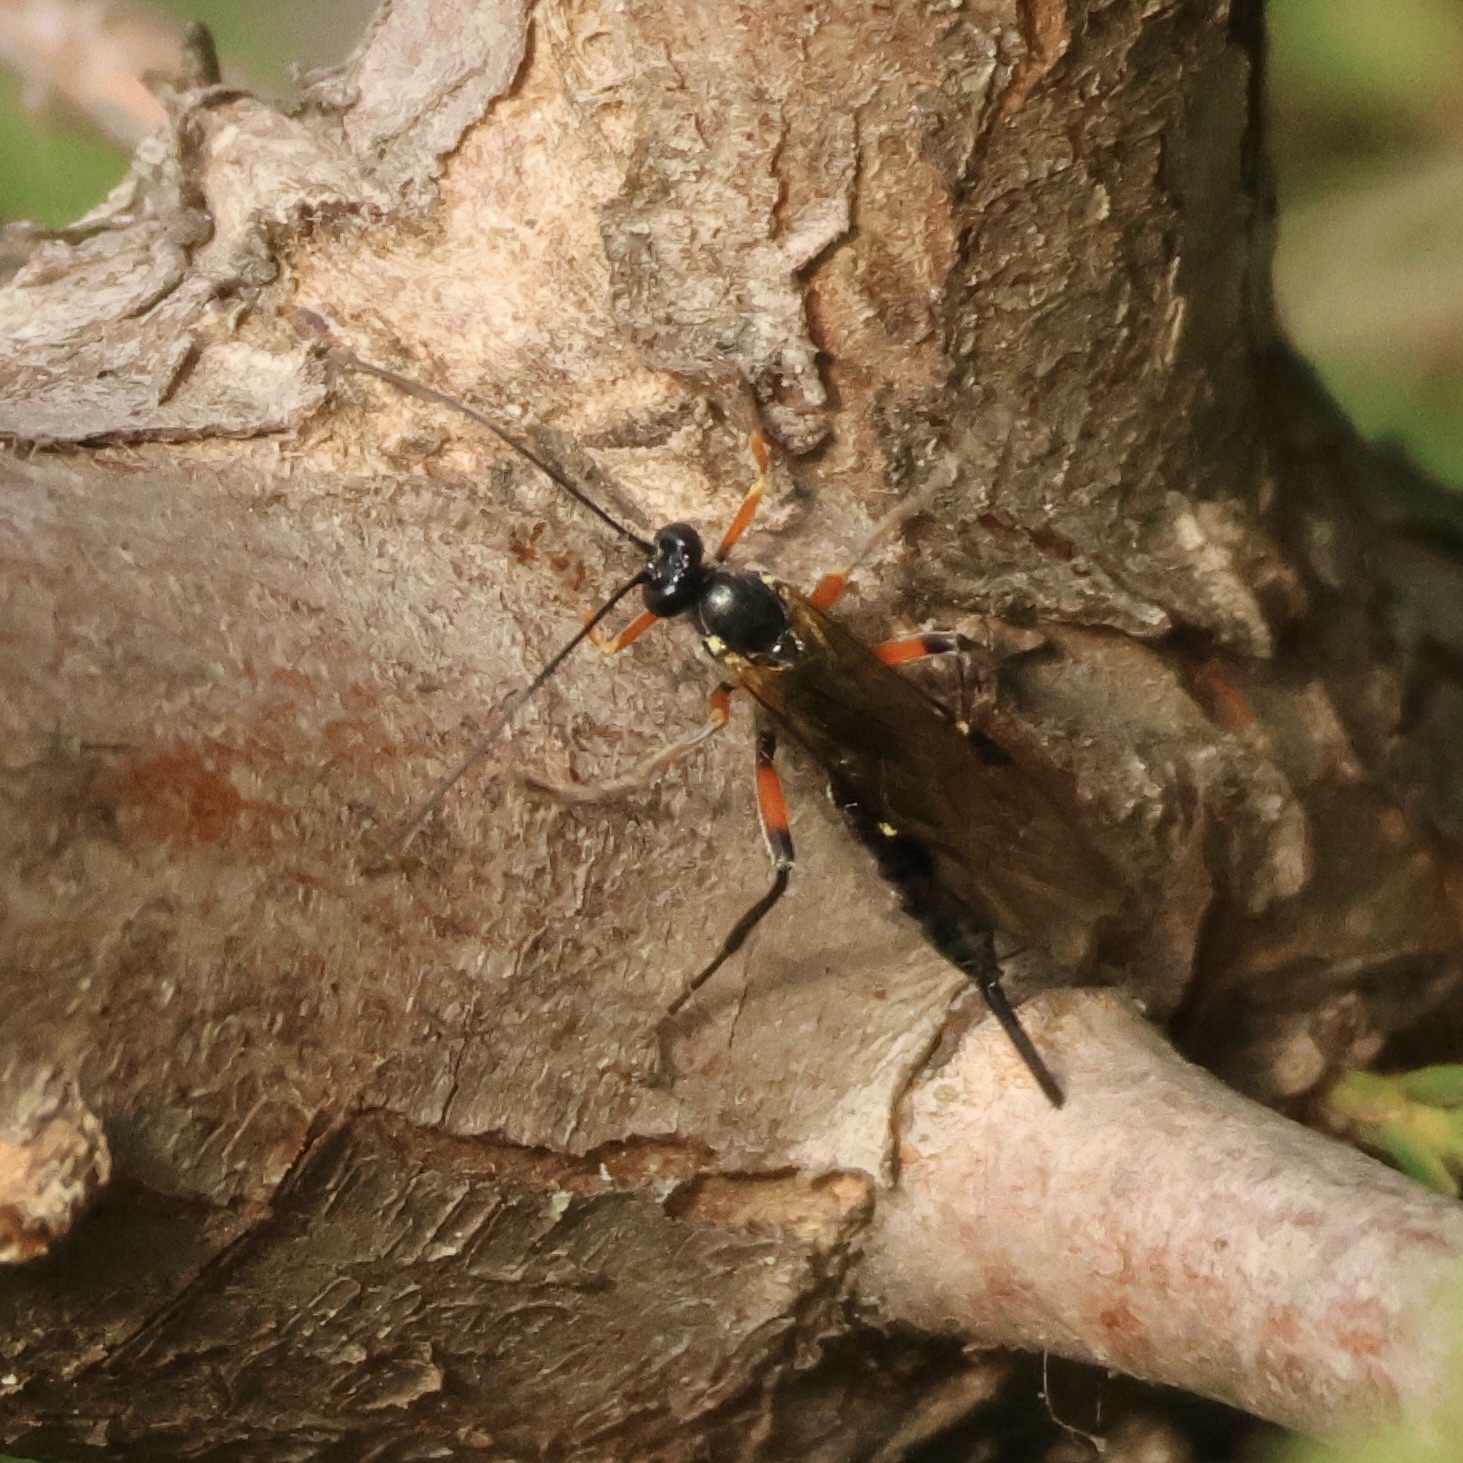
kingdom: Animalia
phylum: Arthropoda
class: Insecta
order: Hymenoptera
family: Ichneumonidae
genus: Pimpla
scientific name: Pimpla disparis
